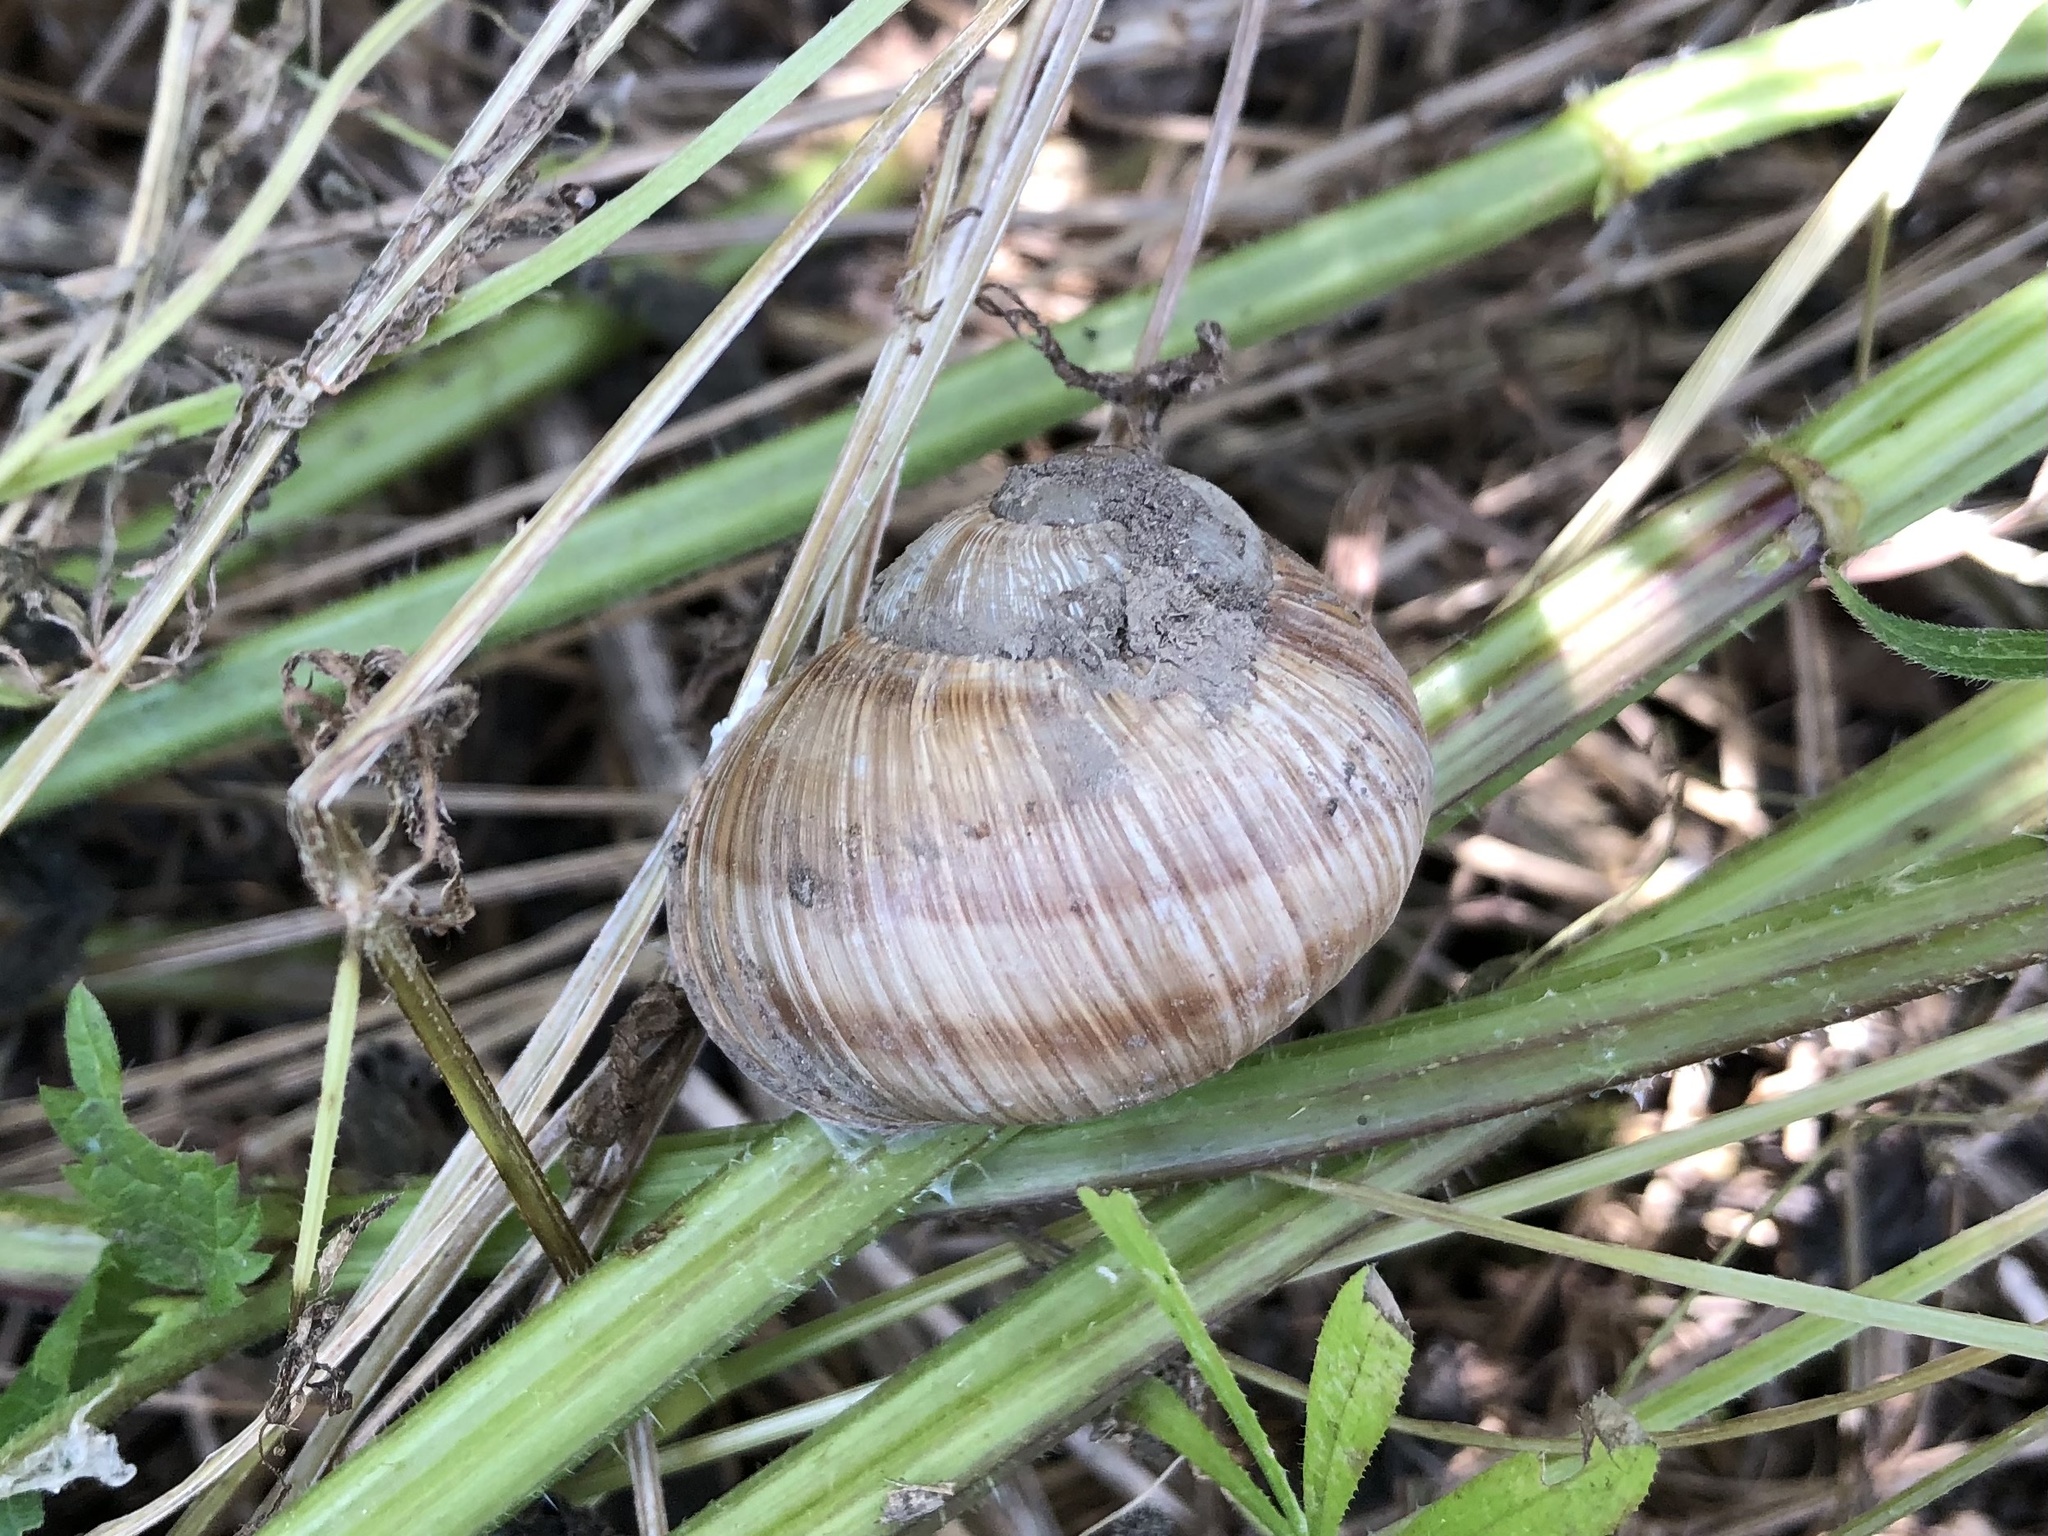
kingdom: Animalia
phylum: Mollusca
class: Gastropoda
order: Stylommatophora
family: Helicidae
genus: Helix
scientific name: Helix pomatia
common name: Roman snail
